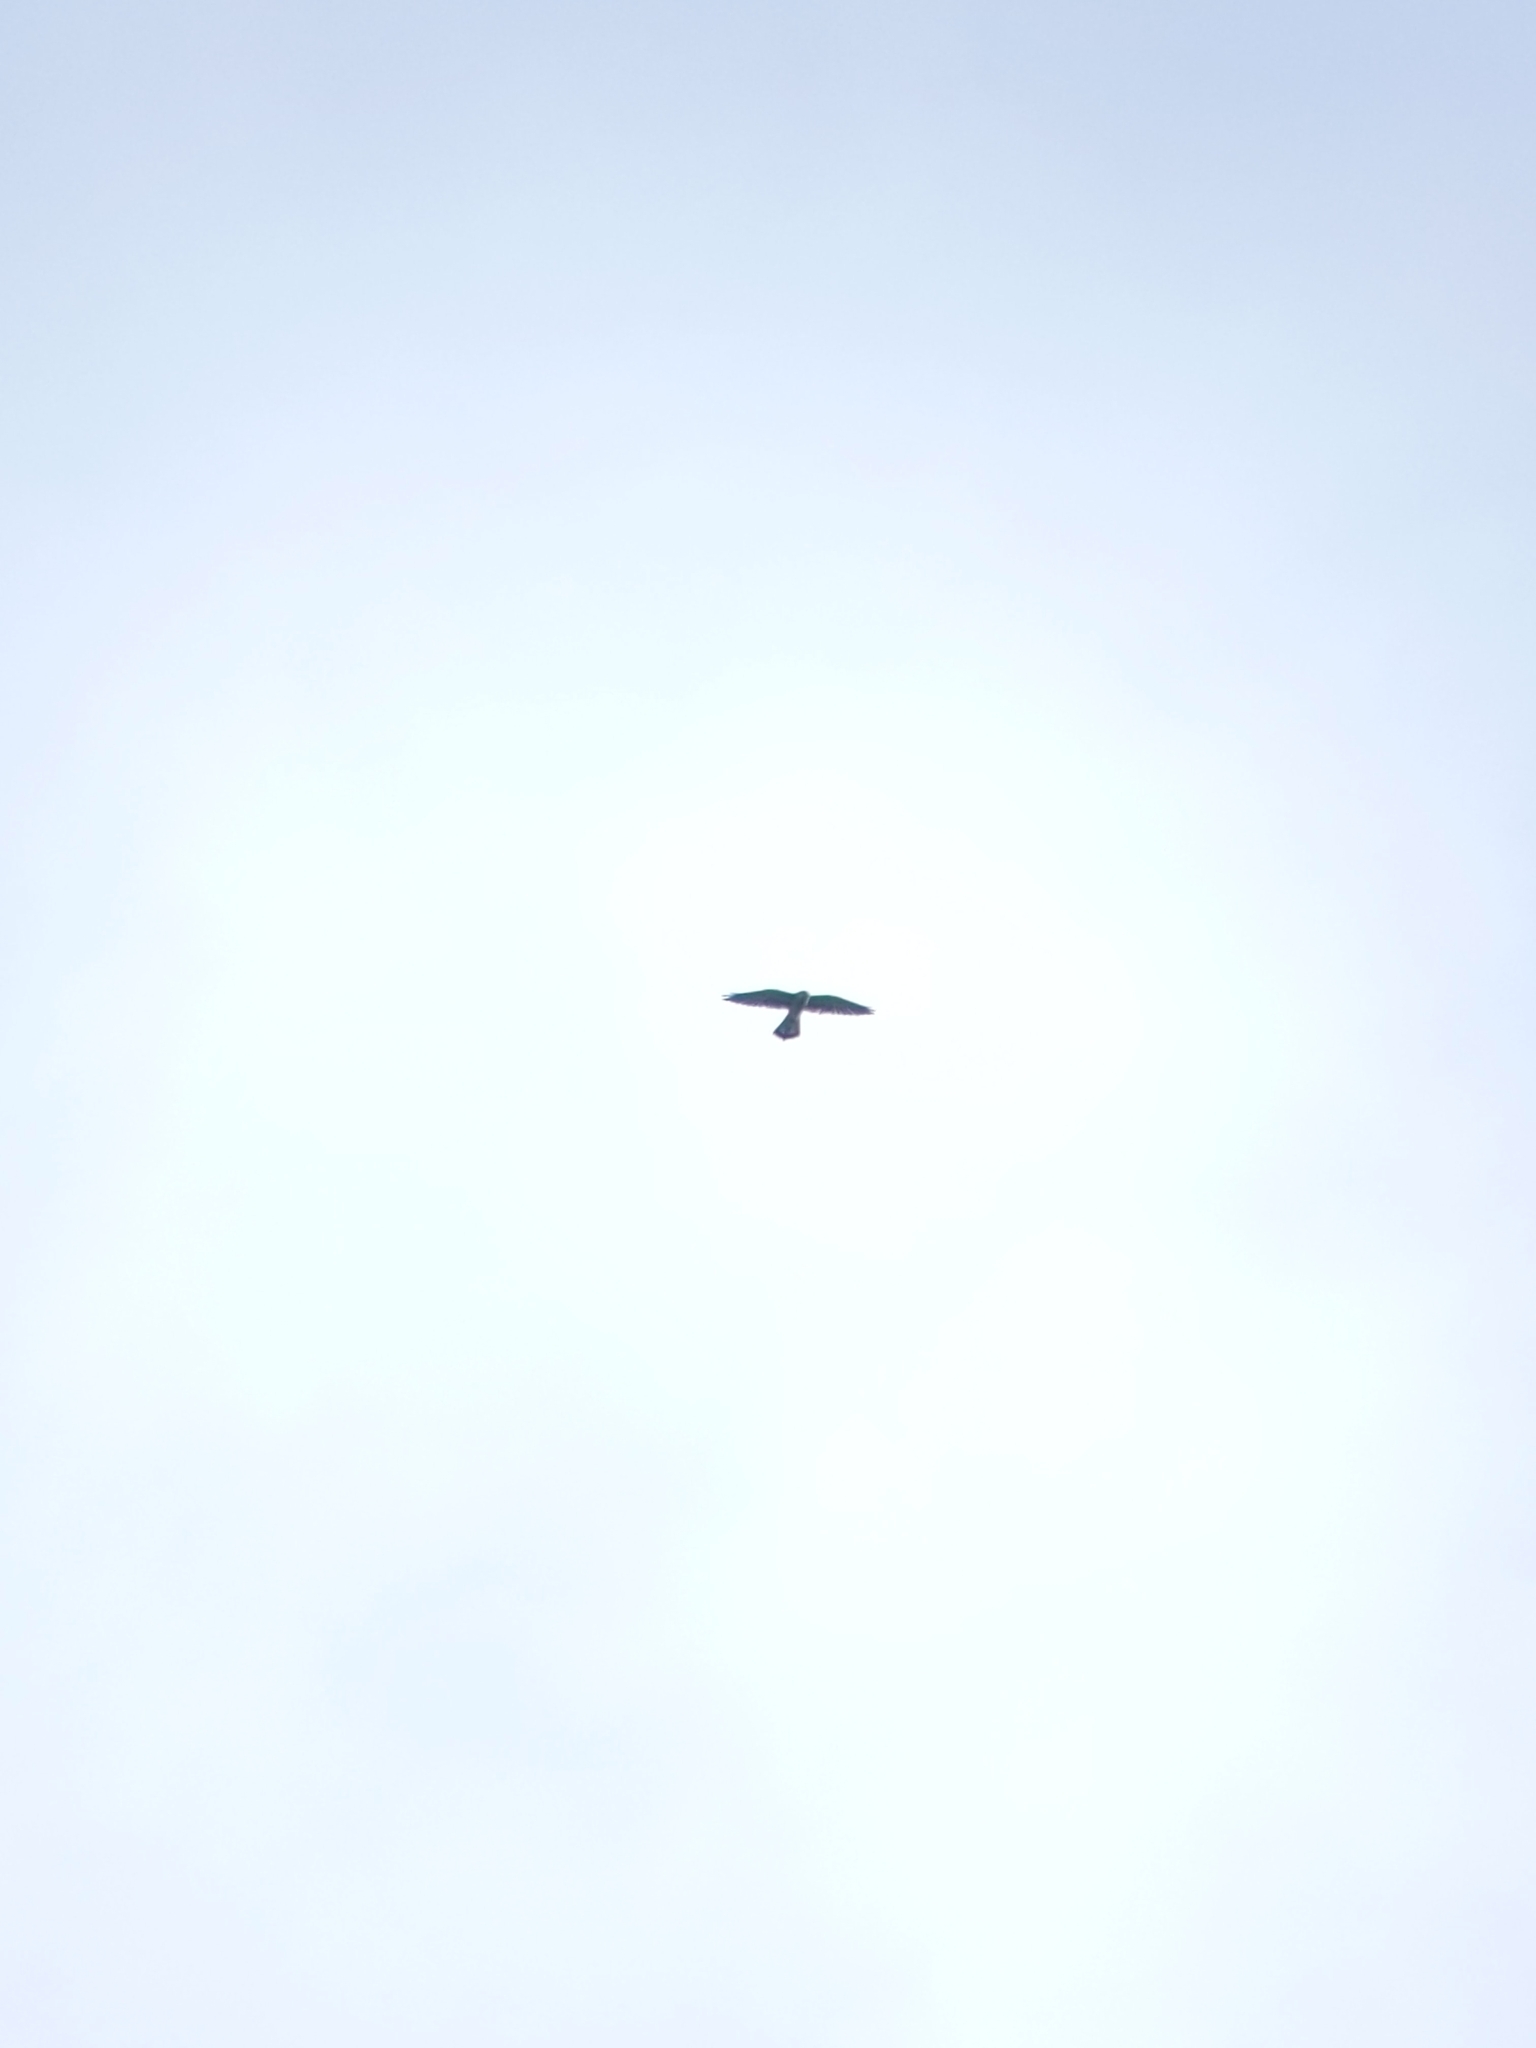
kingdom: Animalia
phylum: Chordata
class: Aves
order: Falconiformes
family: Falconidae
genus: Falco
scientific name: Falco tinnunculus
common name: Common kestrel
